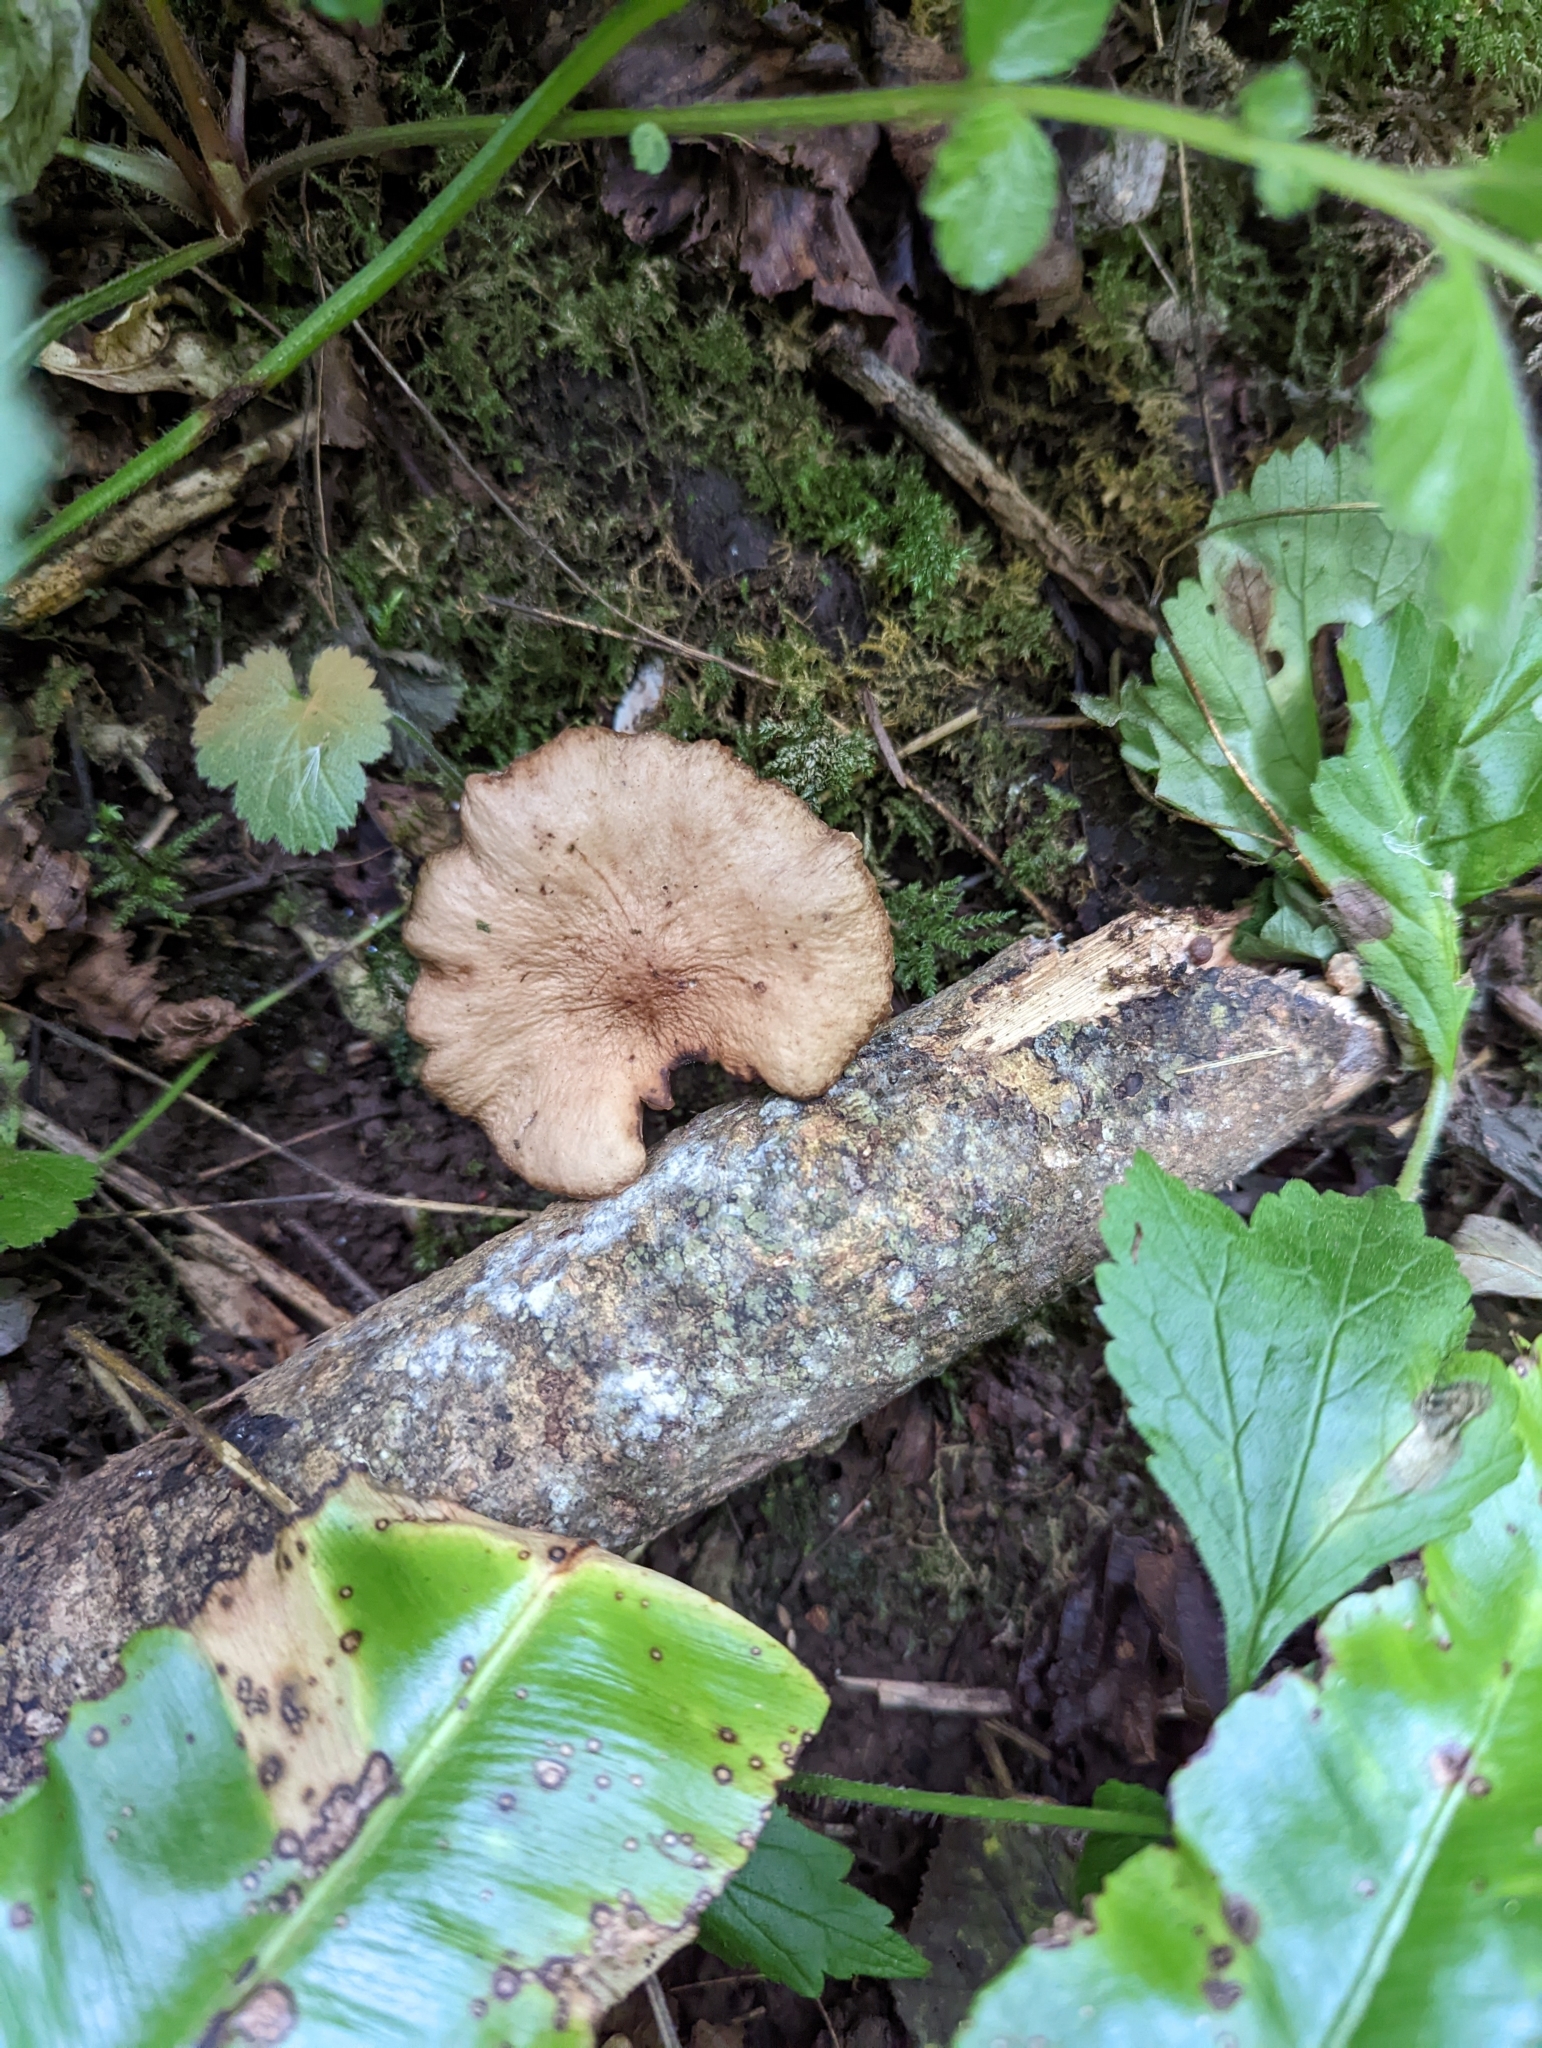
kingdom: Fungi
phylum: Basidiomycota
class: Agaricomycetes
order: Polyporales
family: Polyporaceae
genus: Cerioporus
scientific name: Cerioporus squamosus
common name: Dryad's saddle
